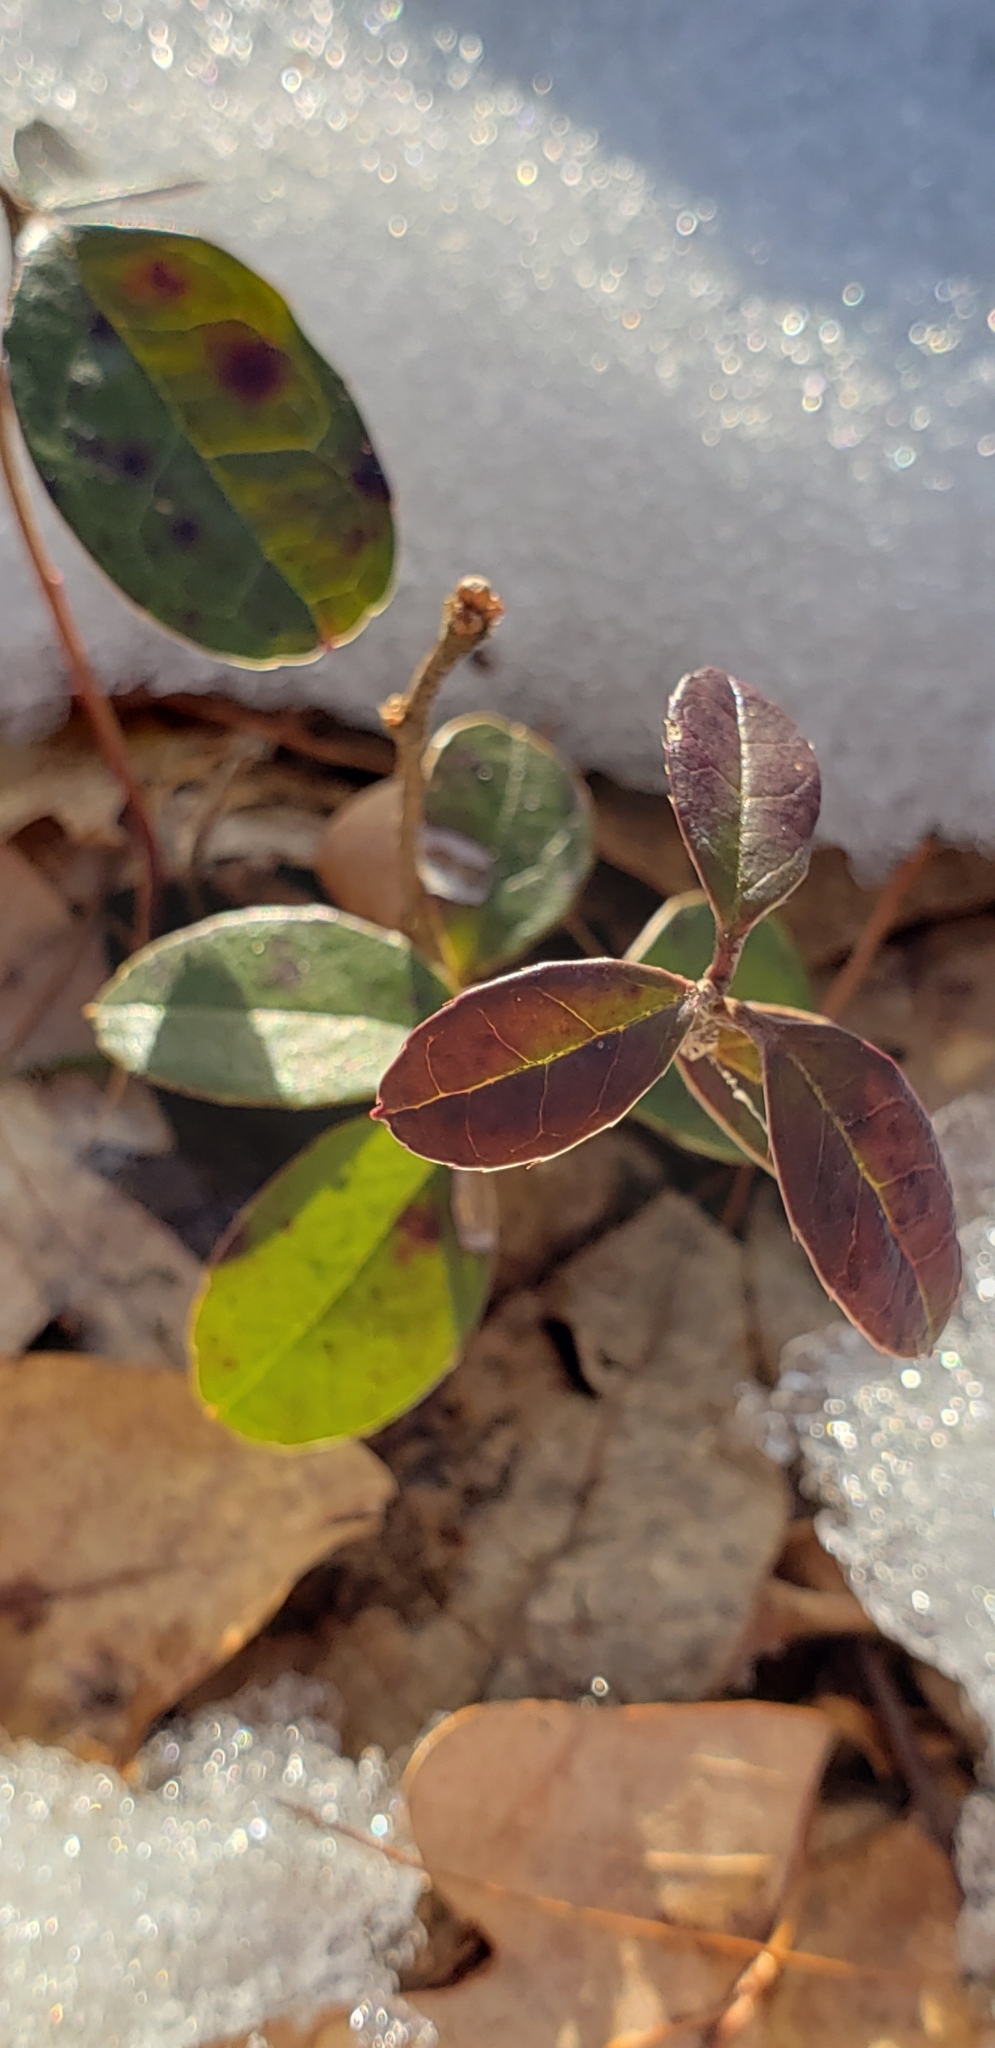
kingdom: Plantae
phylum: Tracheophyta
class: Magnoliopsida
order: Ericales
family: Ericaceae
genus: Gaultheria
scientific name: Gaultheria procumbens
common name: Checkerberry
